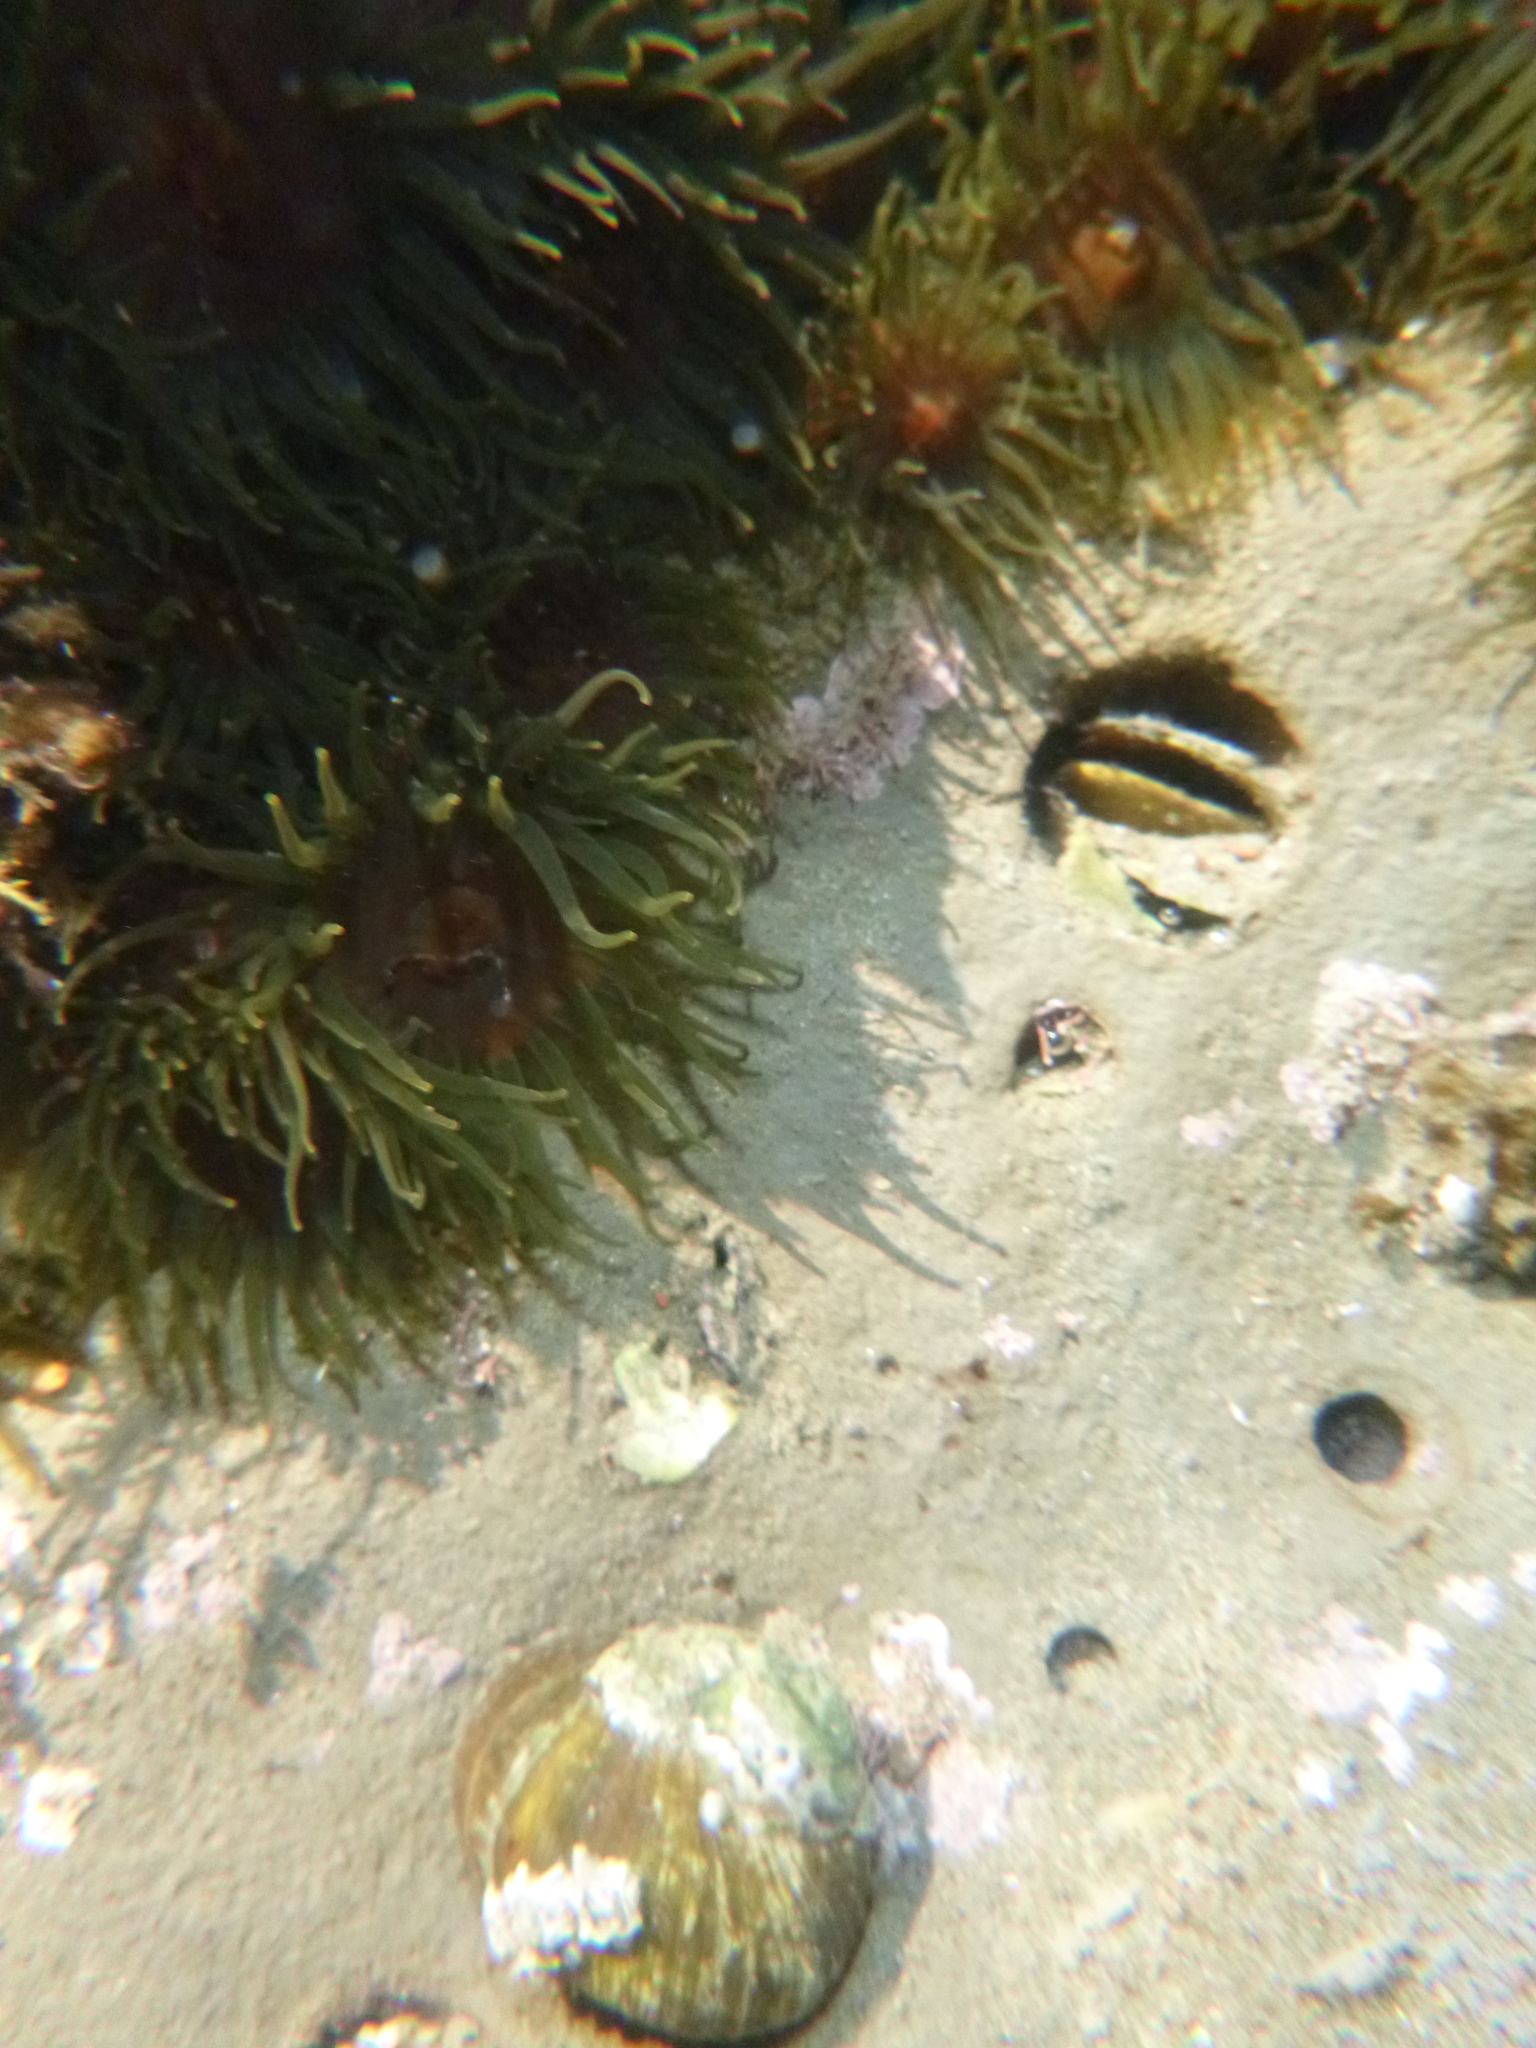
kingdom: Animalia
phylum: Cnidaria
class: Anthozoa
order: Actiniaria
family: Actiniidae
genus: Isactinia
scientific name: Isactinia olivacea
